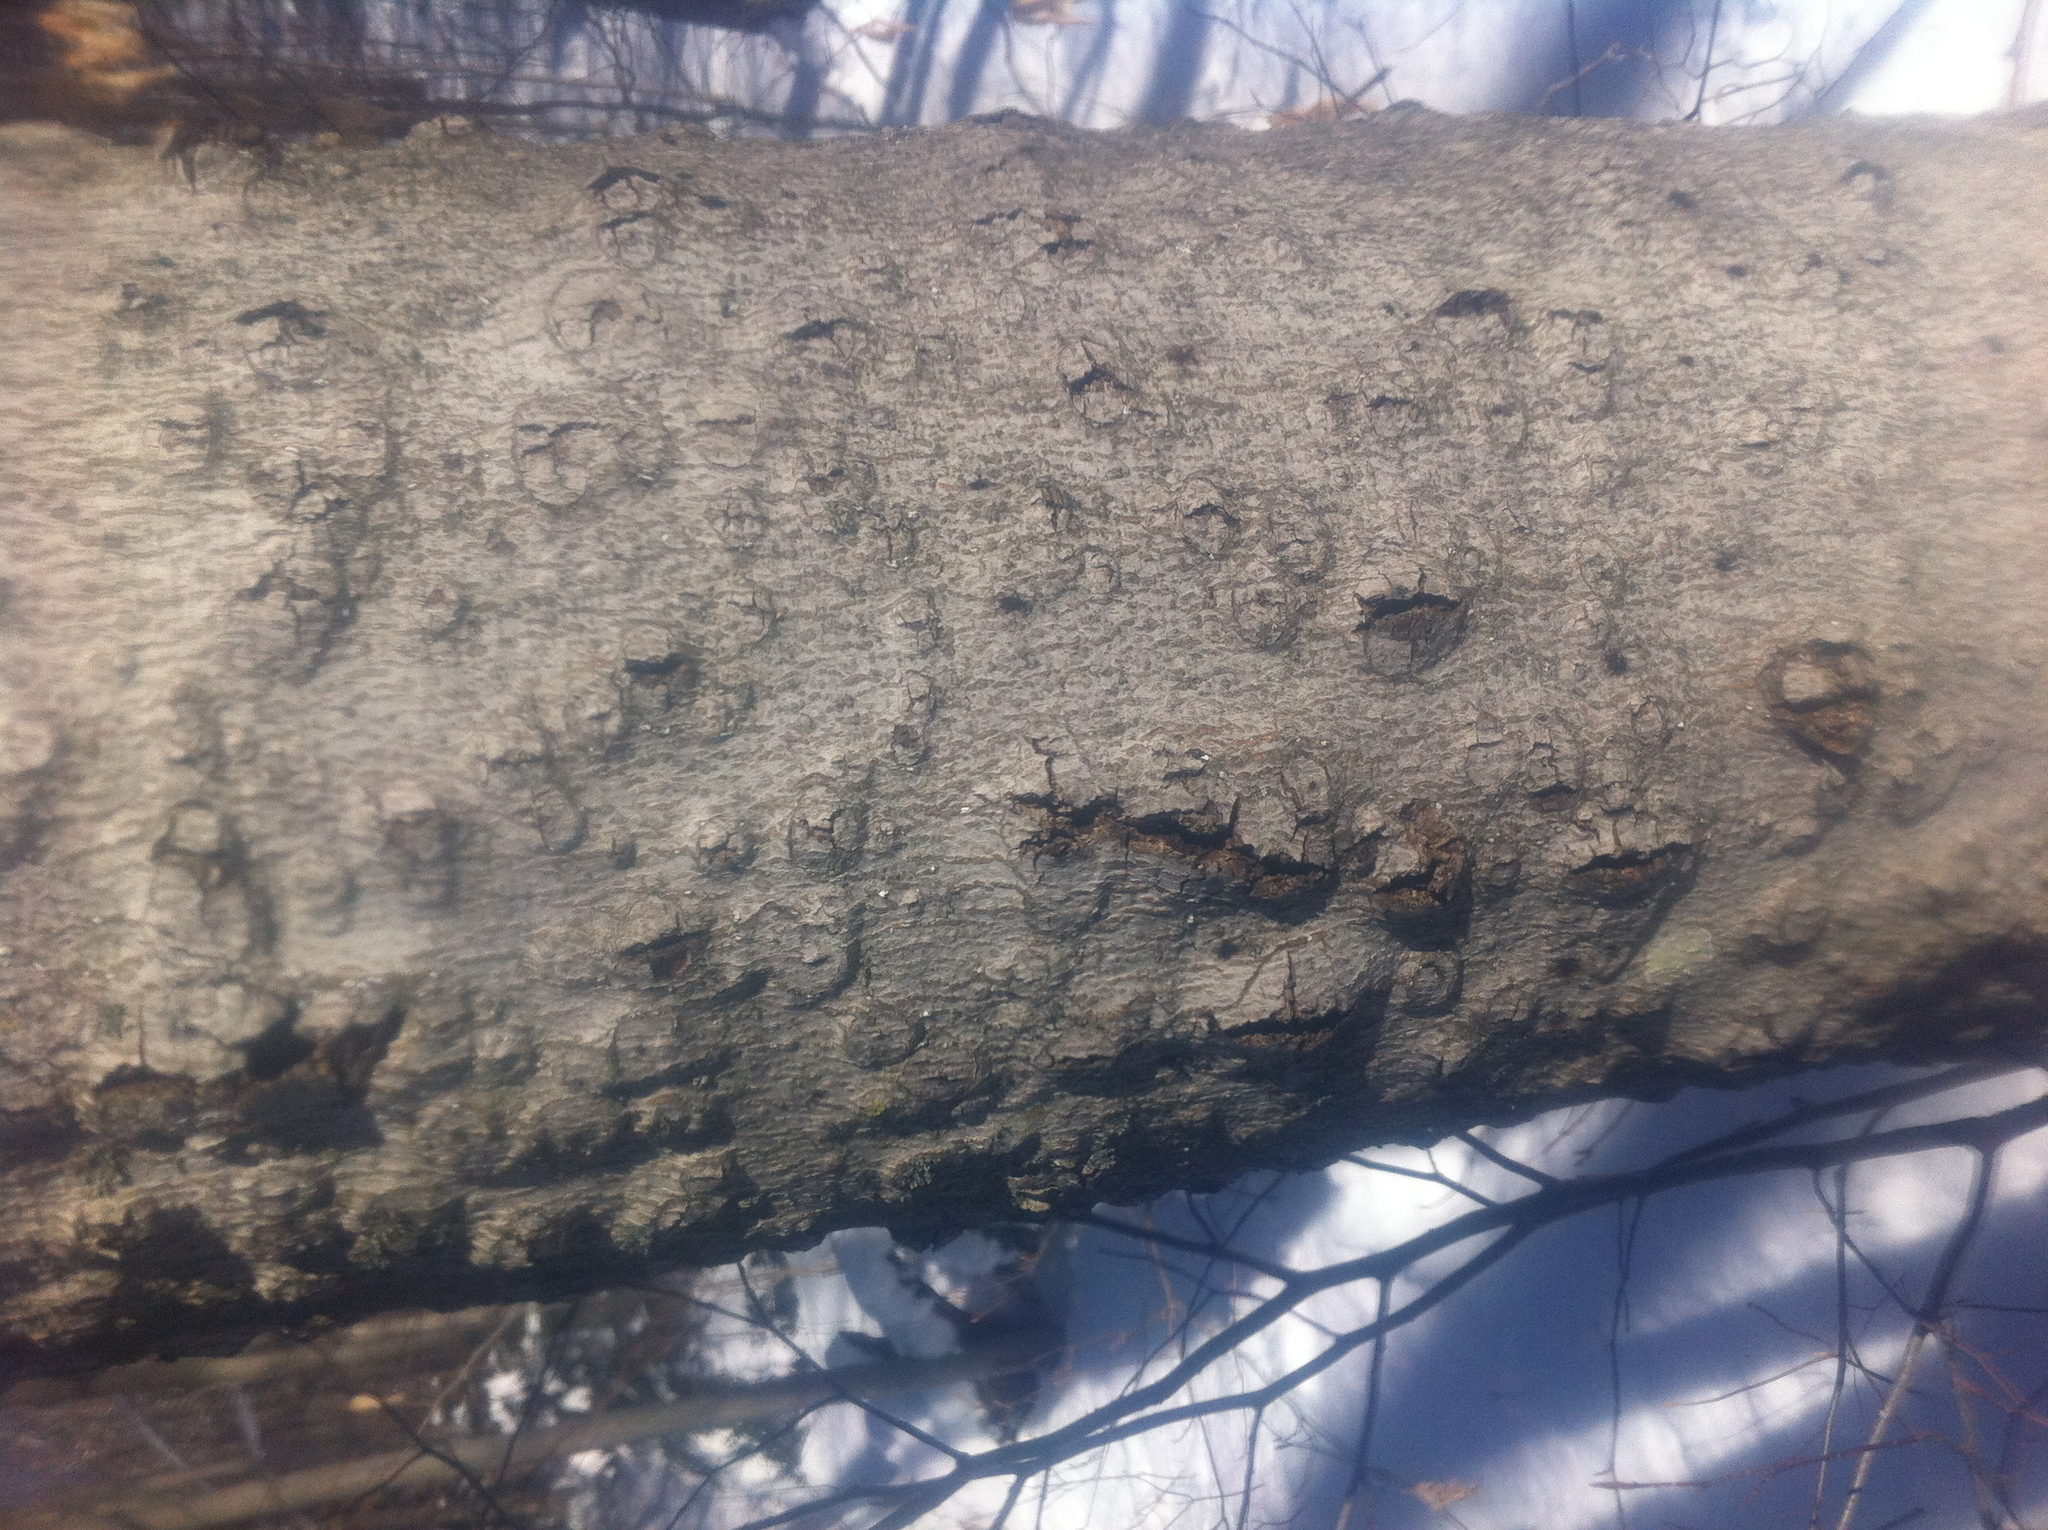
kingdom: Fungi
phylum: Ascomycota
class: Sordariomycetes
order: Hypocreales
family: Nectriaceae
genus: Neonectria
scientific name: Neonectria faginata
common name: Beech bark canker
